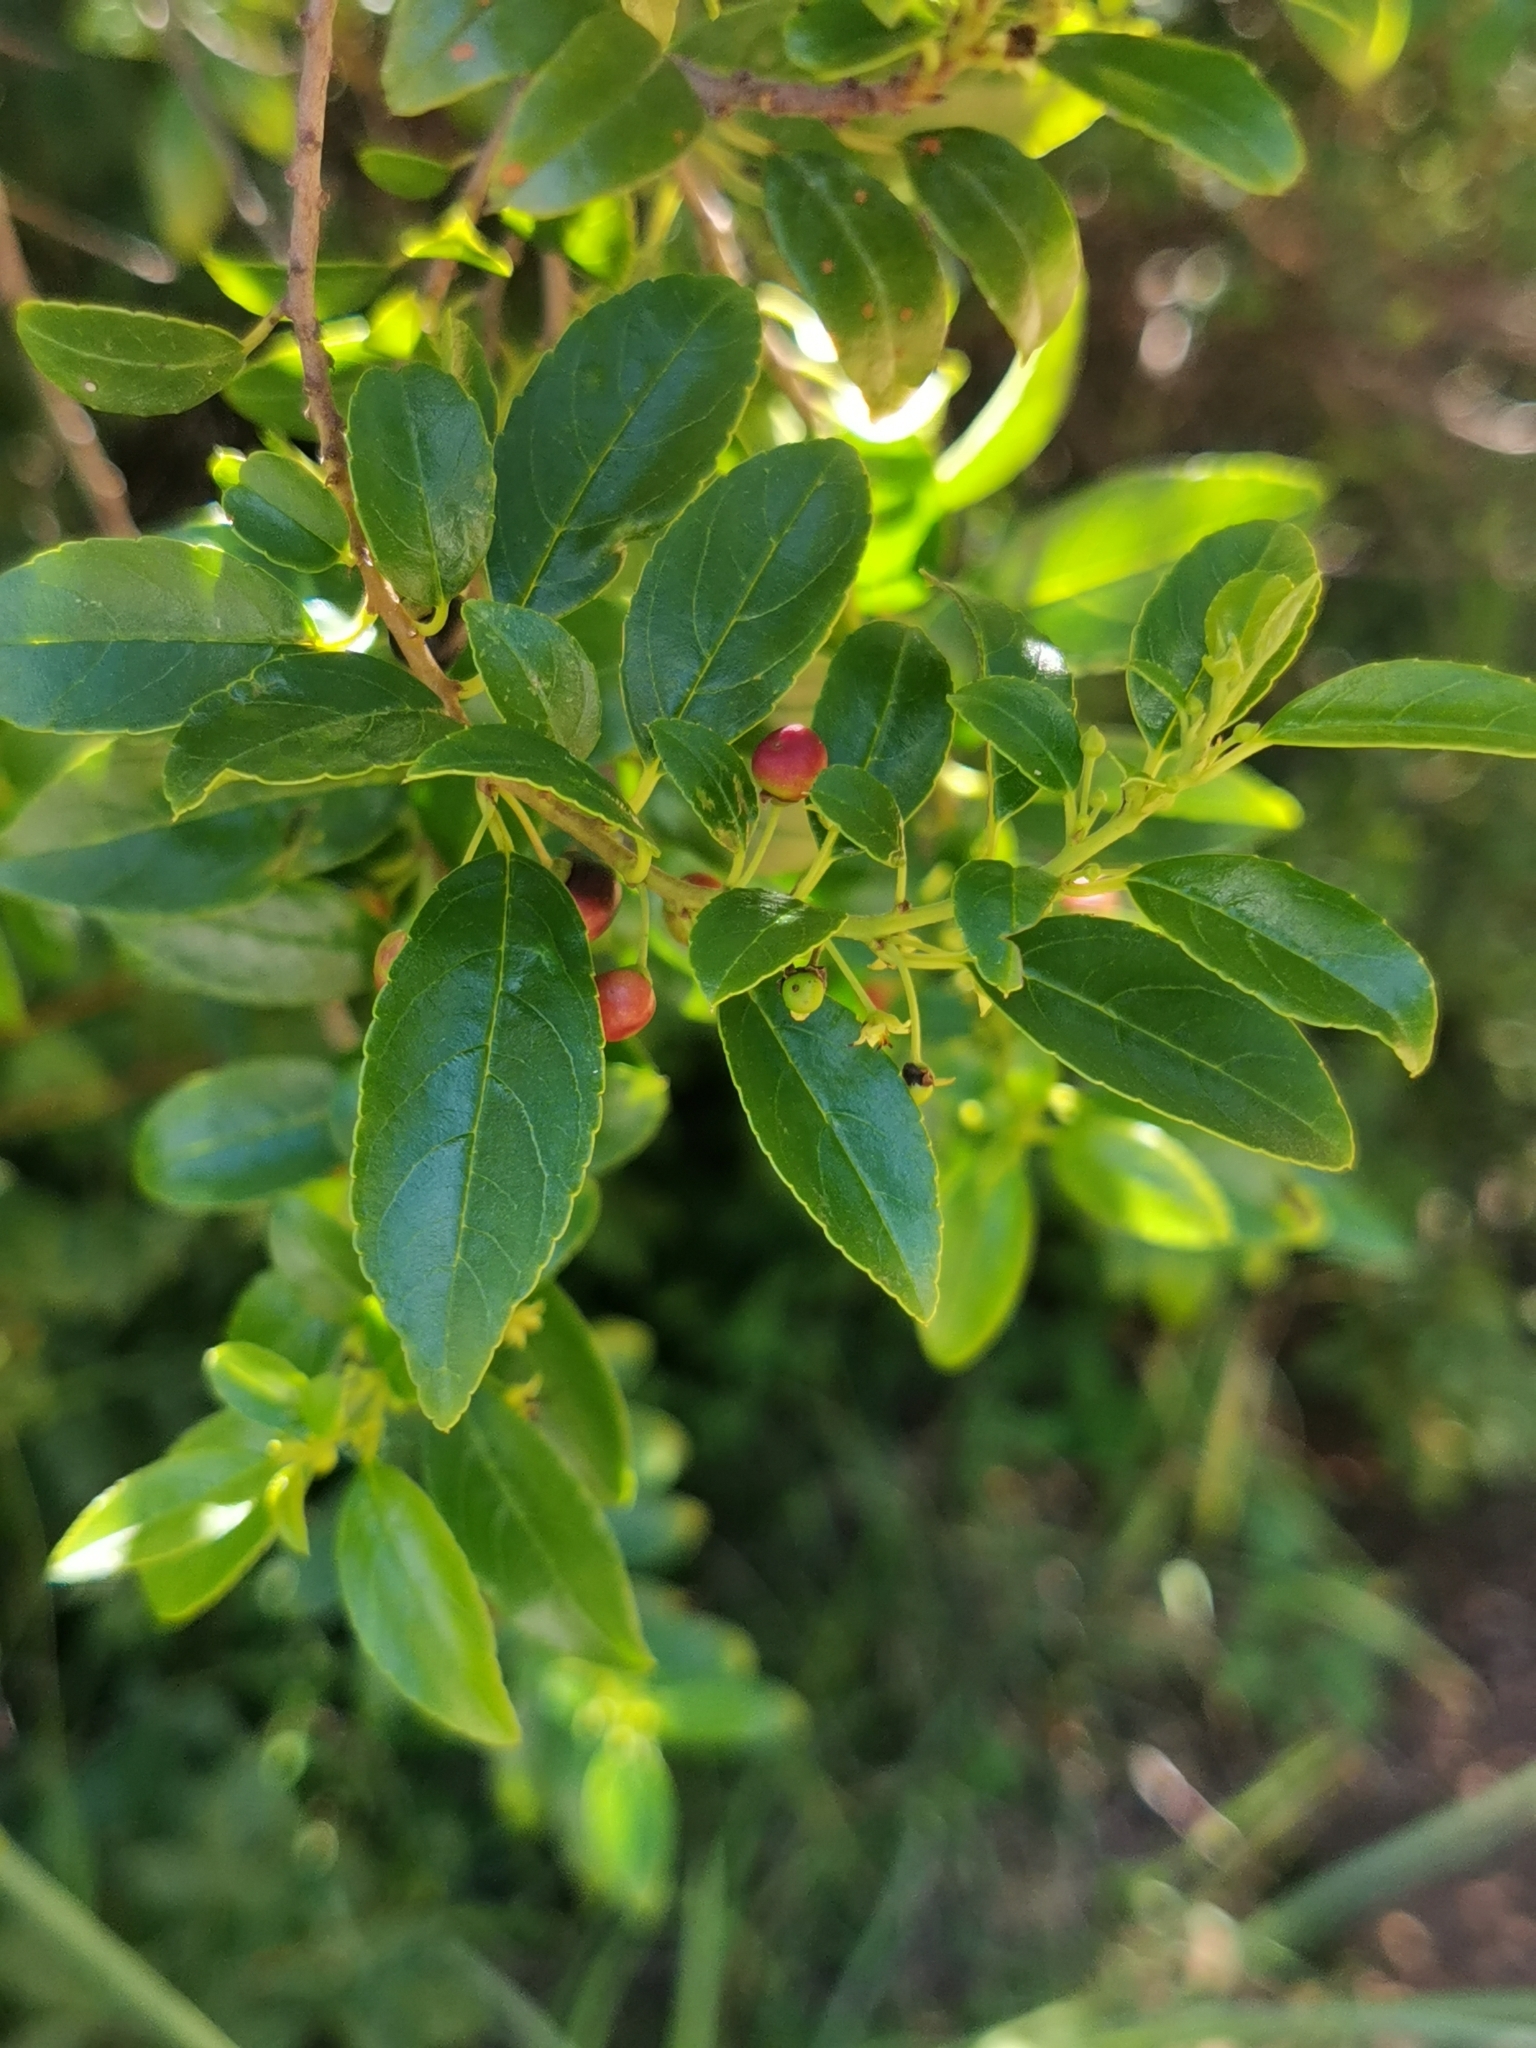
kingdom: Plantae
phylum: Tracheophyta
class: Magnoliopsida
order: Rosales
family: Rhamnaceae
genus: Rhamnus
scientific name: Rhamnus prinoides
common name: Dogwood
